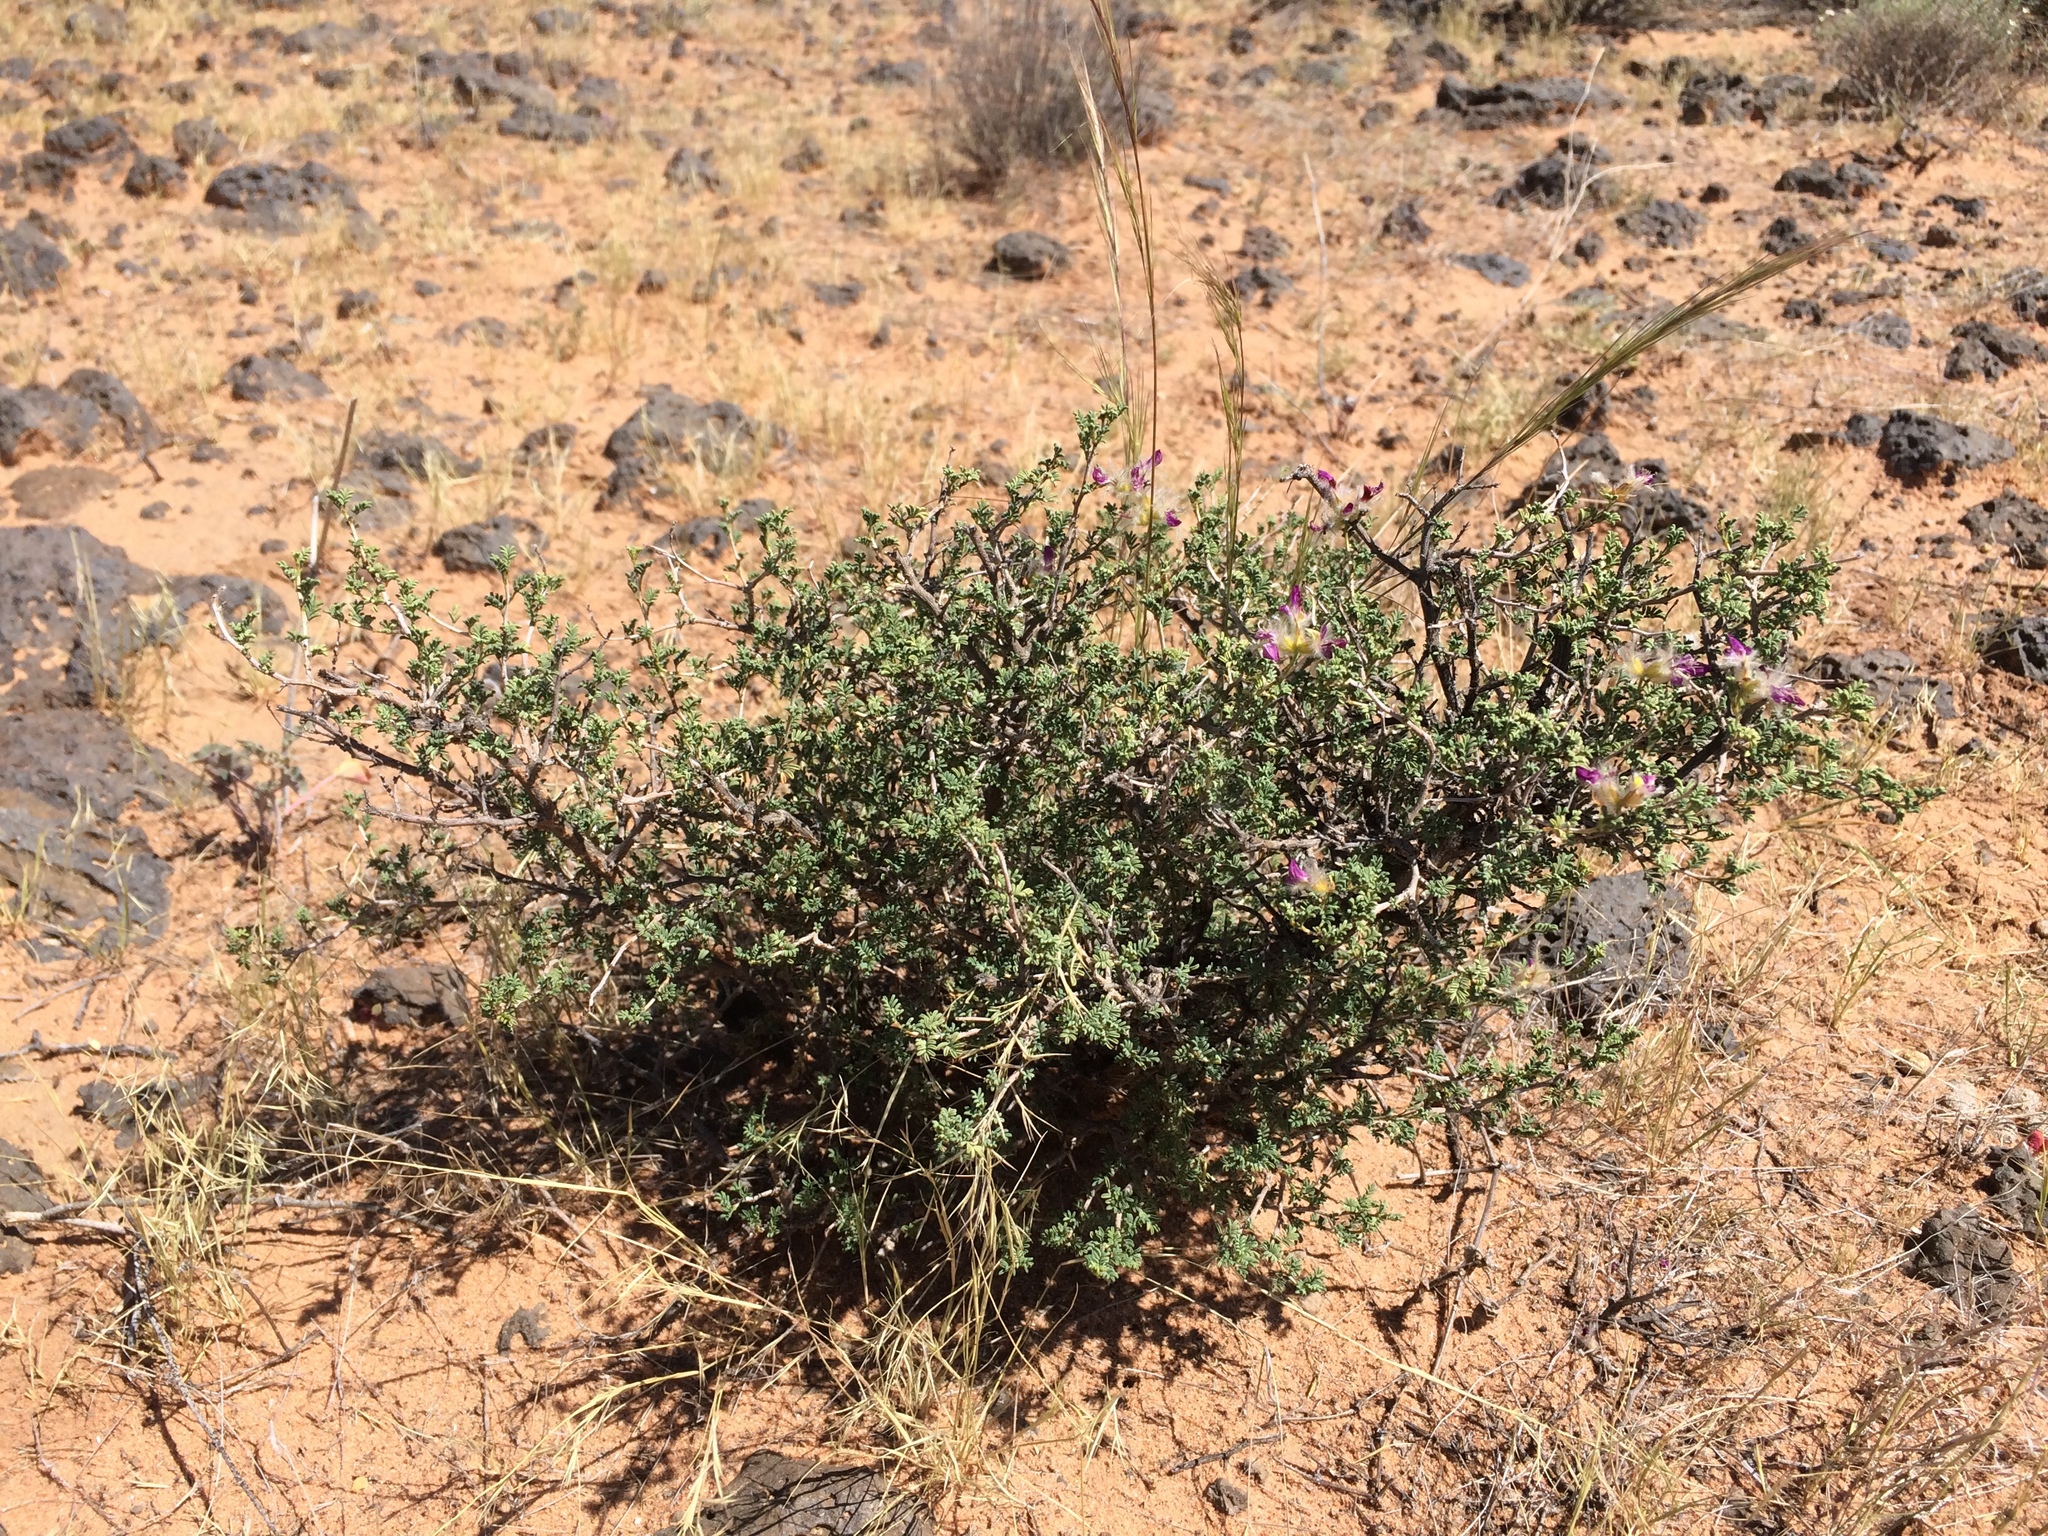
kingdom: Plantae
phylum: Tracheophyta
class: Magnoliopsida
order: Fabales
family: Fabaceae
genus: Dalea
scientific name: Dalea formosa
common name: Feather-plume dalea
